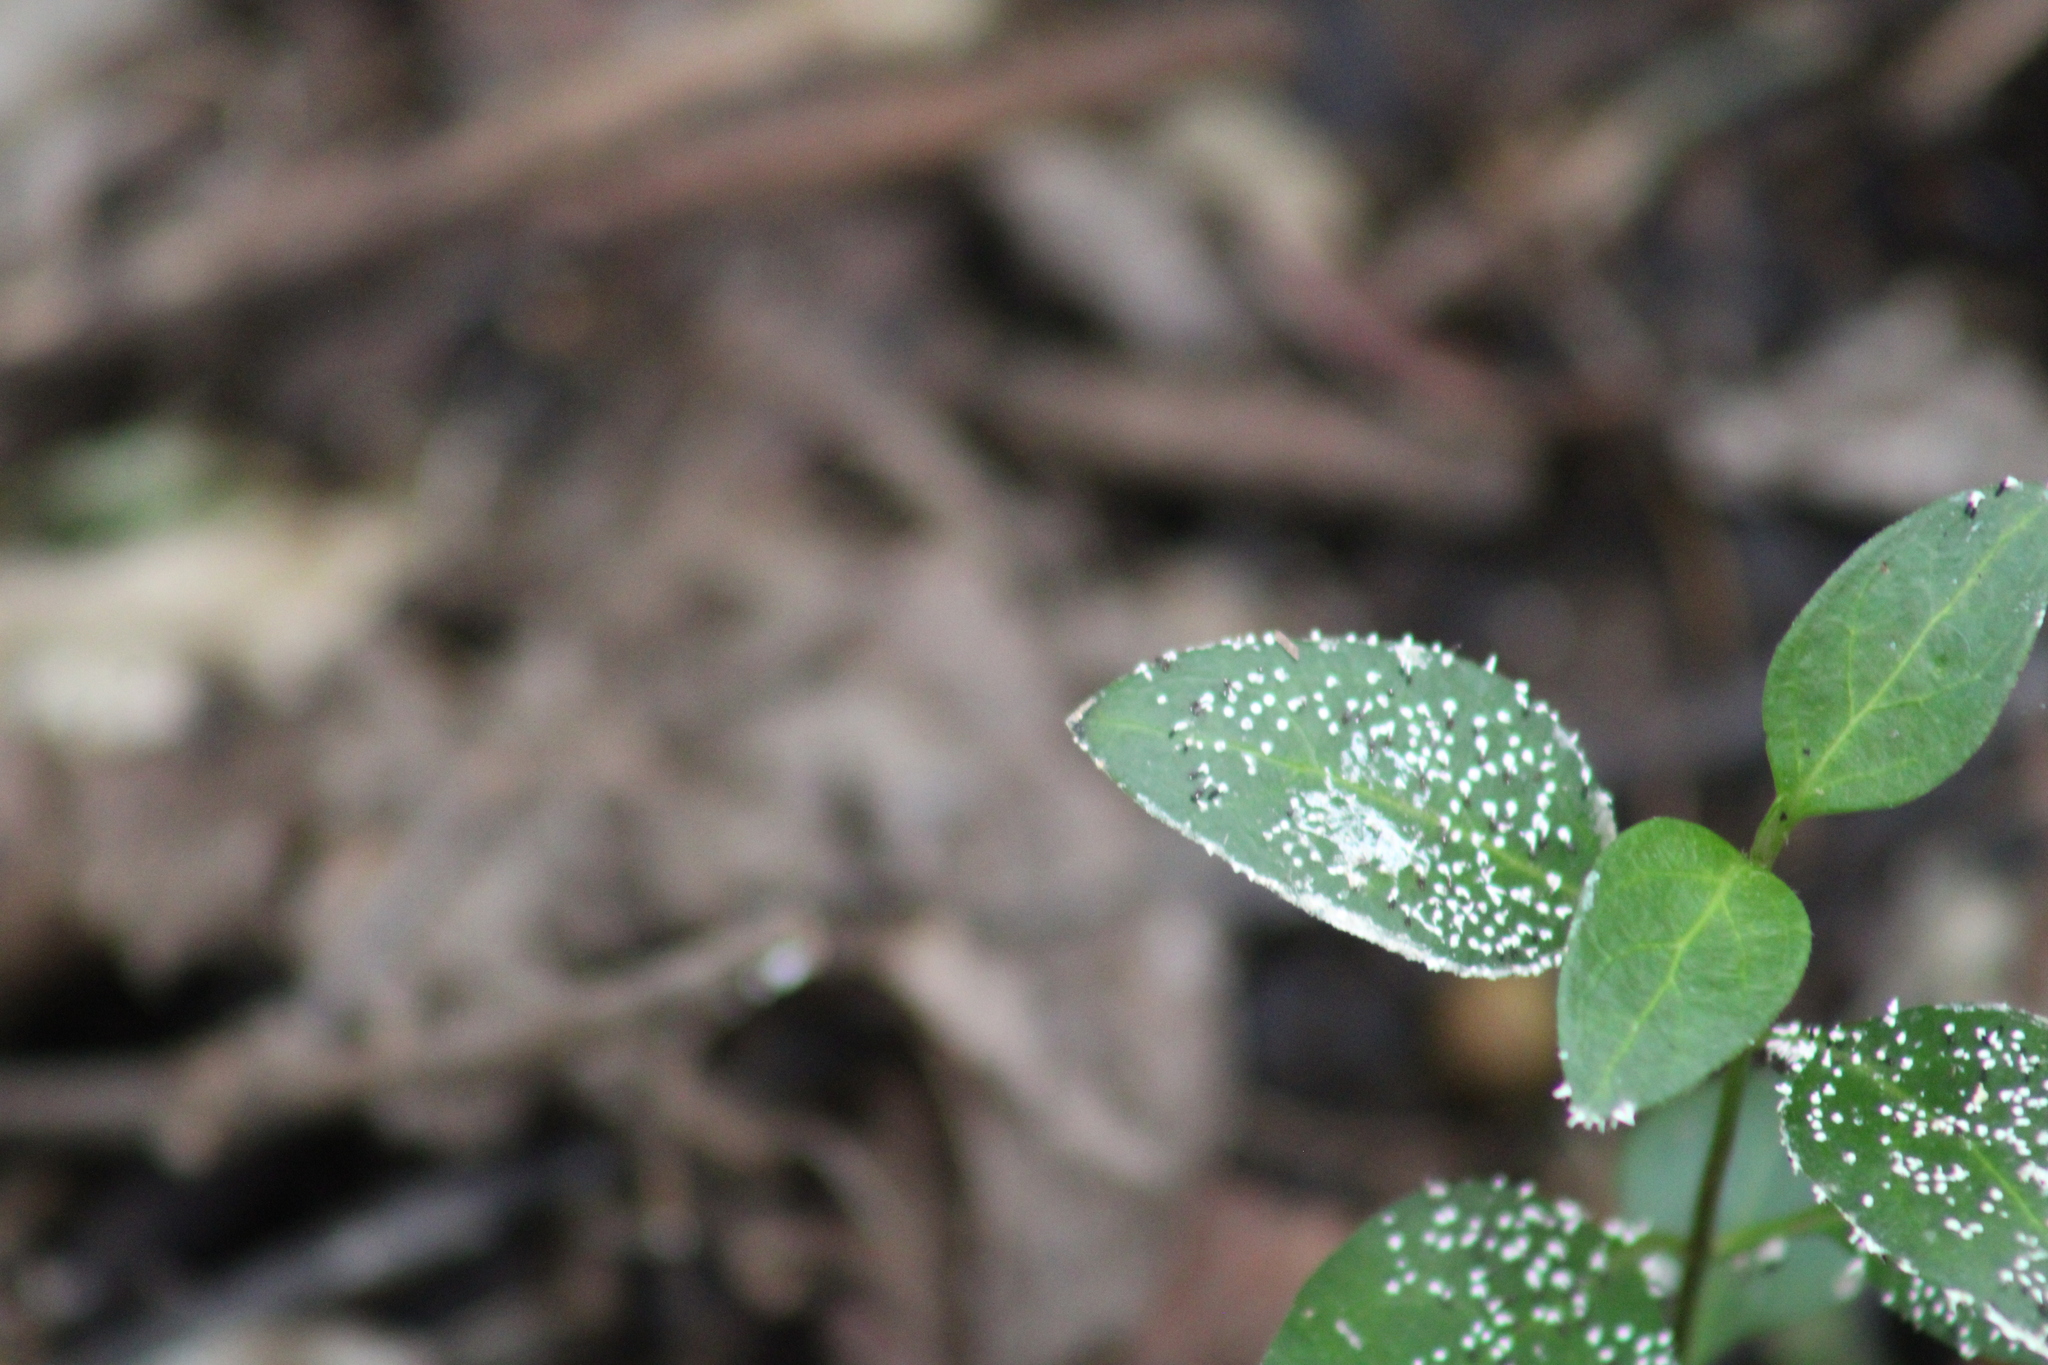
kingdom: Plantae
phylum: Tracheophyta
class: Magnoliopsida
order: Gentianales
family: Apocynaceae
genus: Vinca
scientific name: Vinca major
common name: Greater periwinkle
